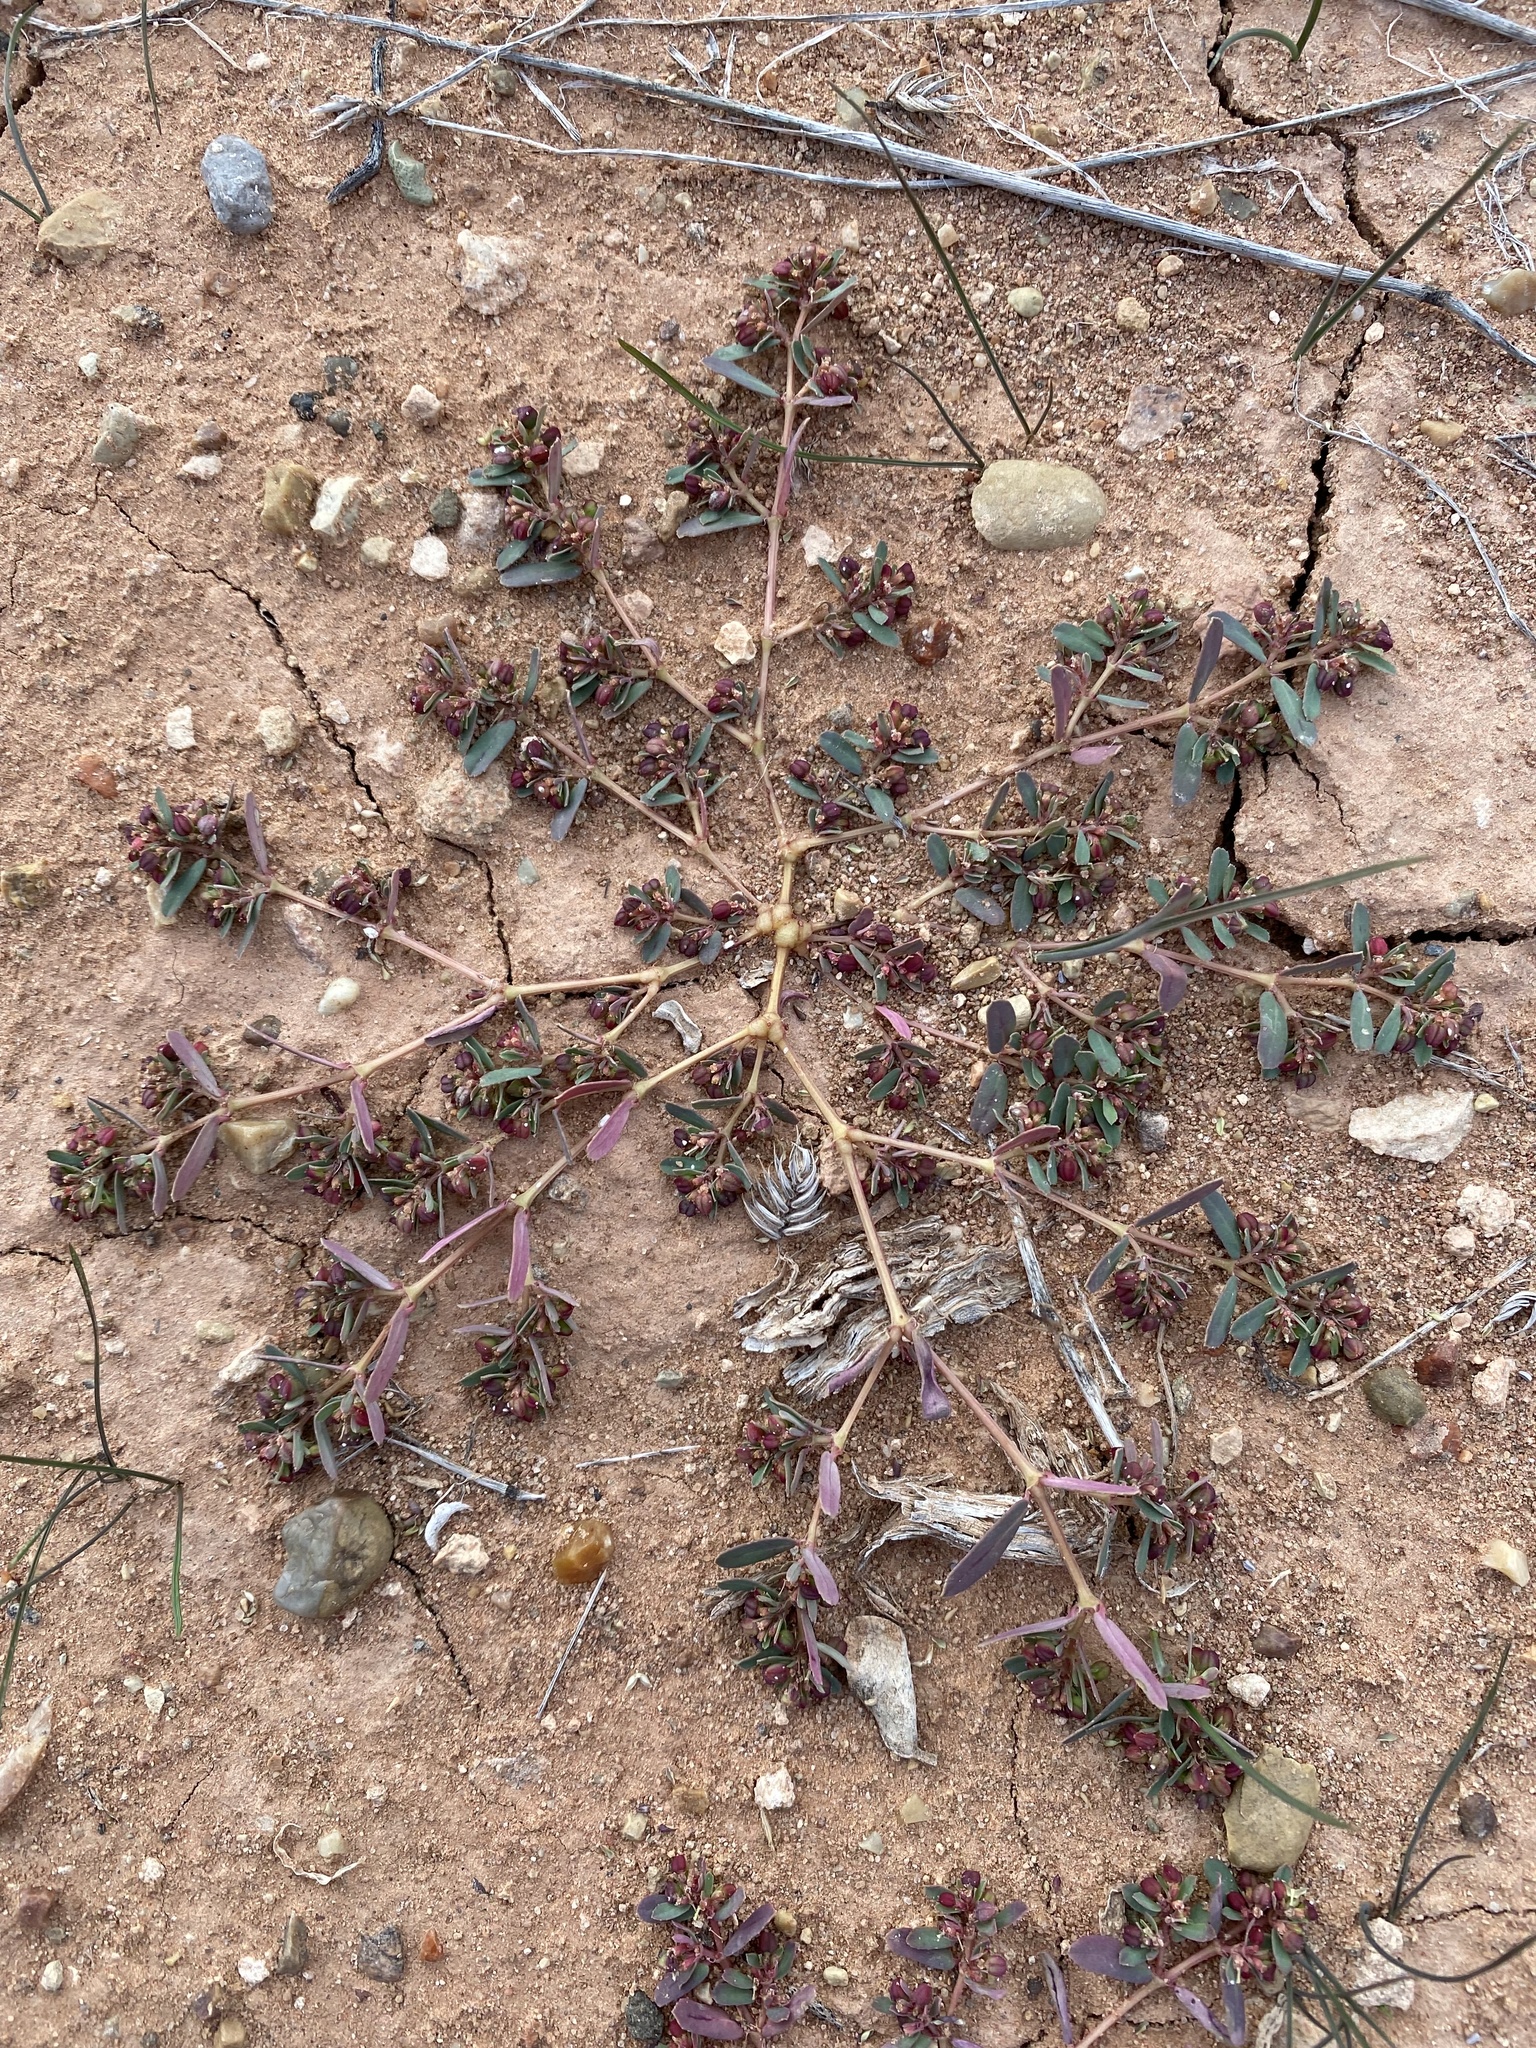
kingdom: Plantae
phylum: Tracheophyta
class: Magnoliopsida
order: Malpighiales
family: Euphorbiaceae
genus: Euphorbia
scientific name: Euphorbia serpillifolia
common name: Thyme-leaf spurge
